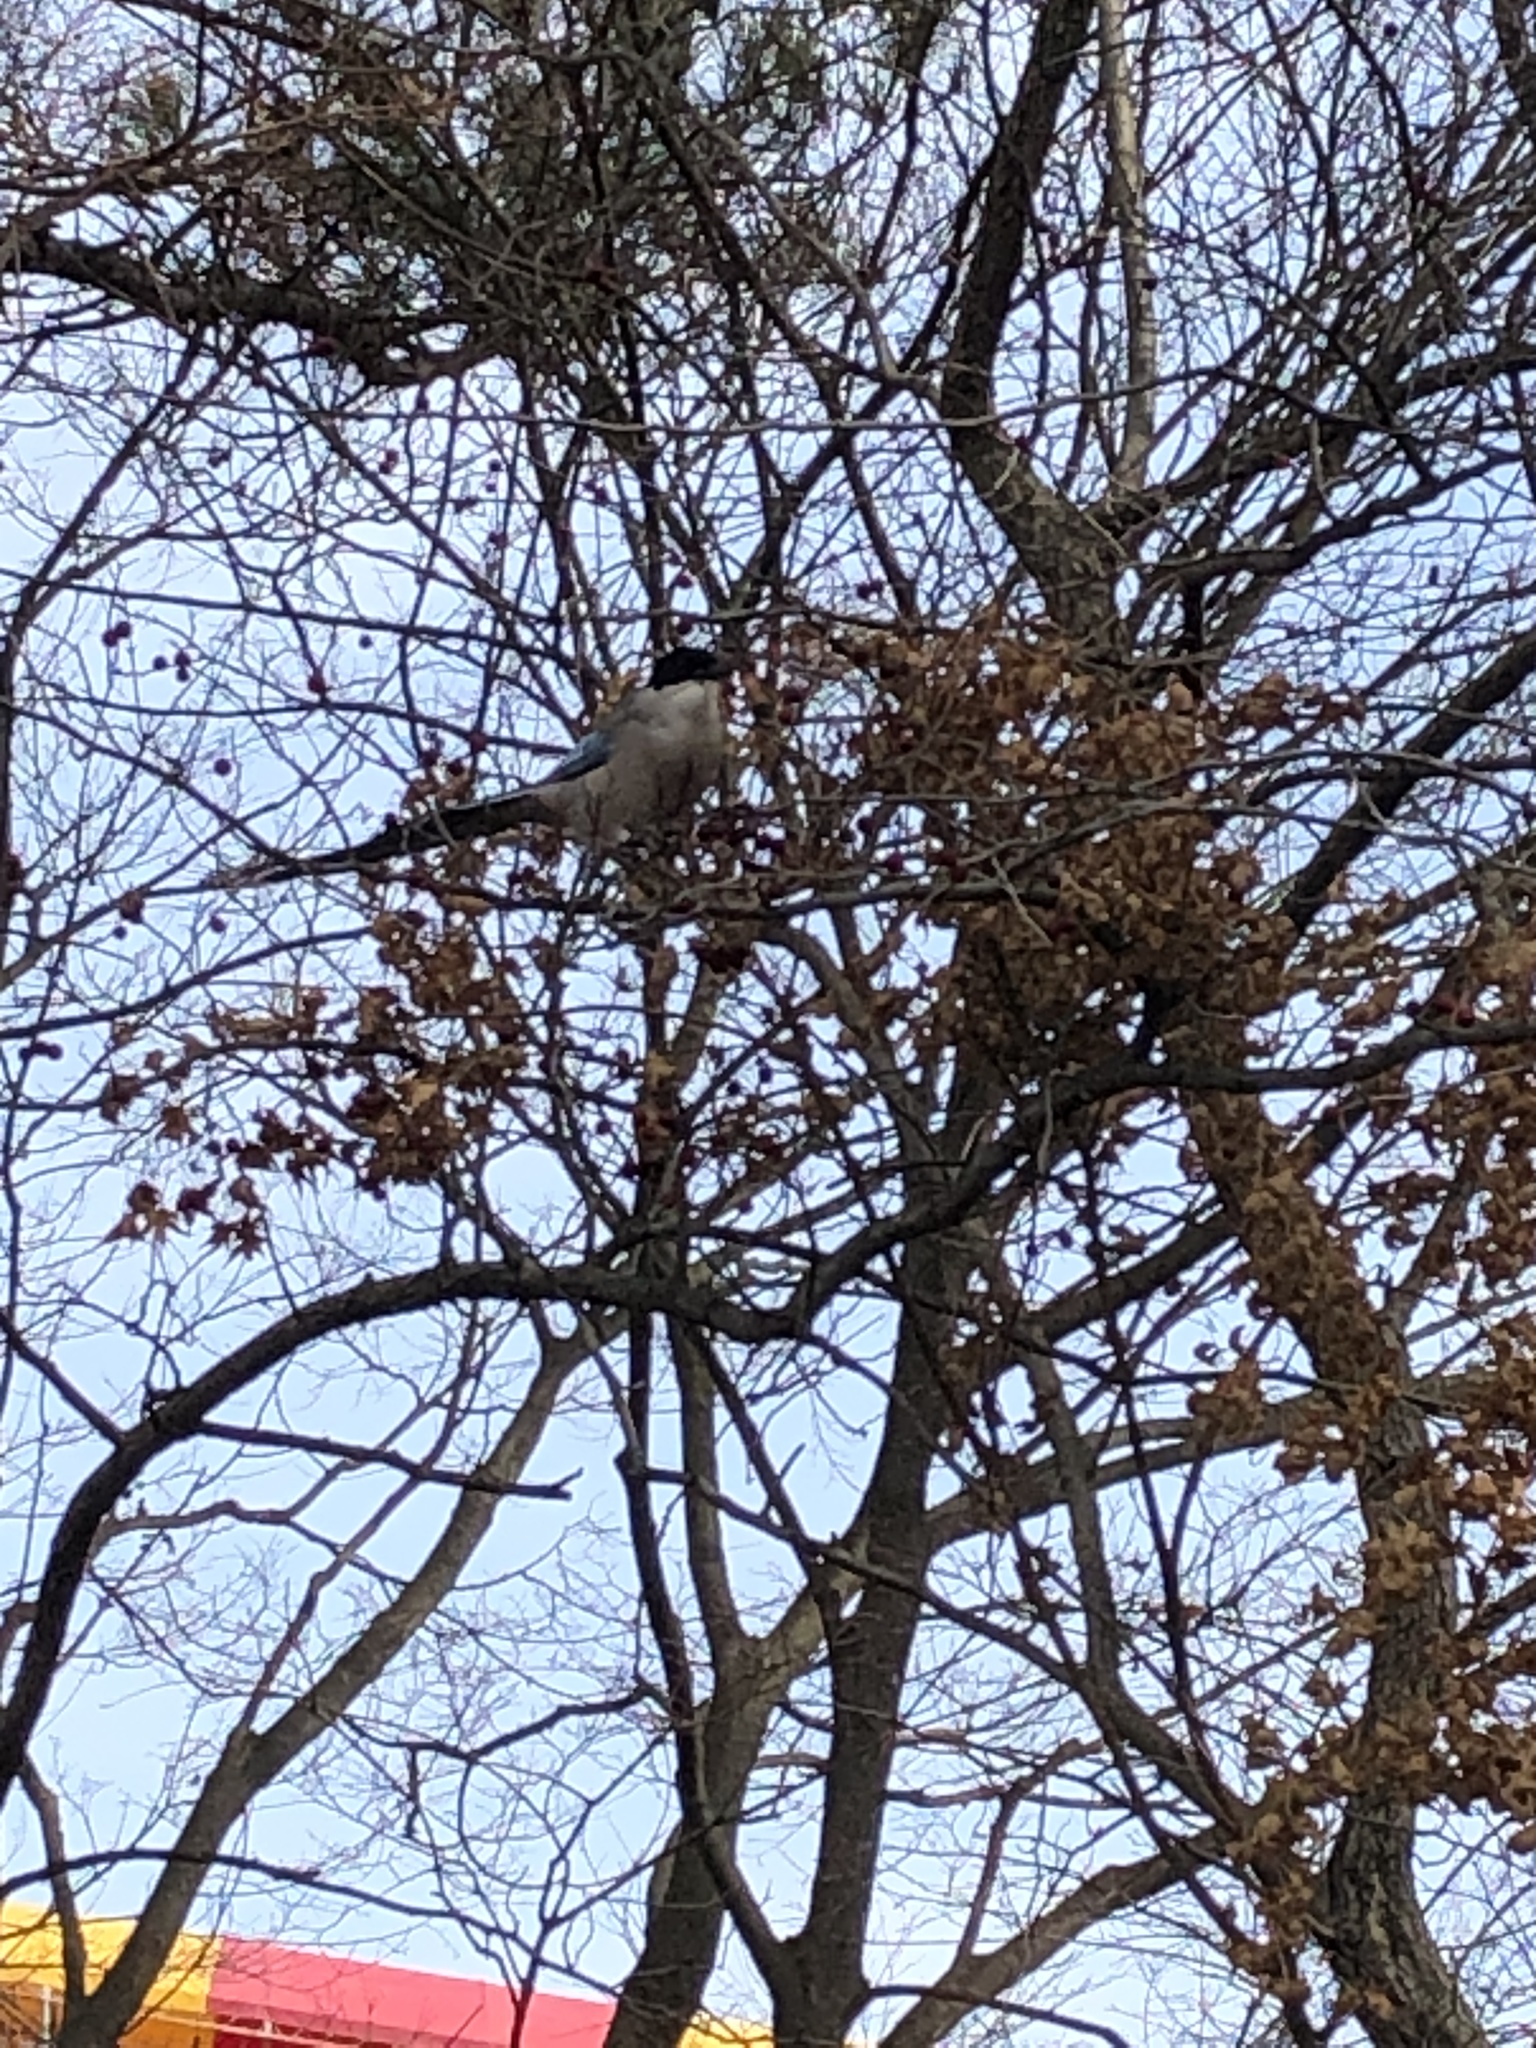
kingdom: Animalia
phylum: Chordata
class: Aves
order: Passeriformes
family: Corvidae
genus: Cyanopica
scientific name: Cyanopica cyanus
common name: Azure-winged magpie
